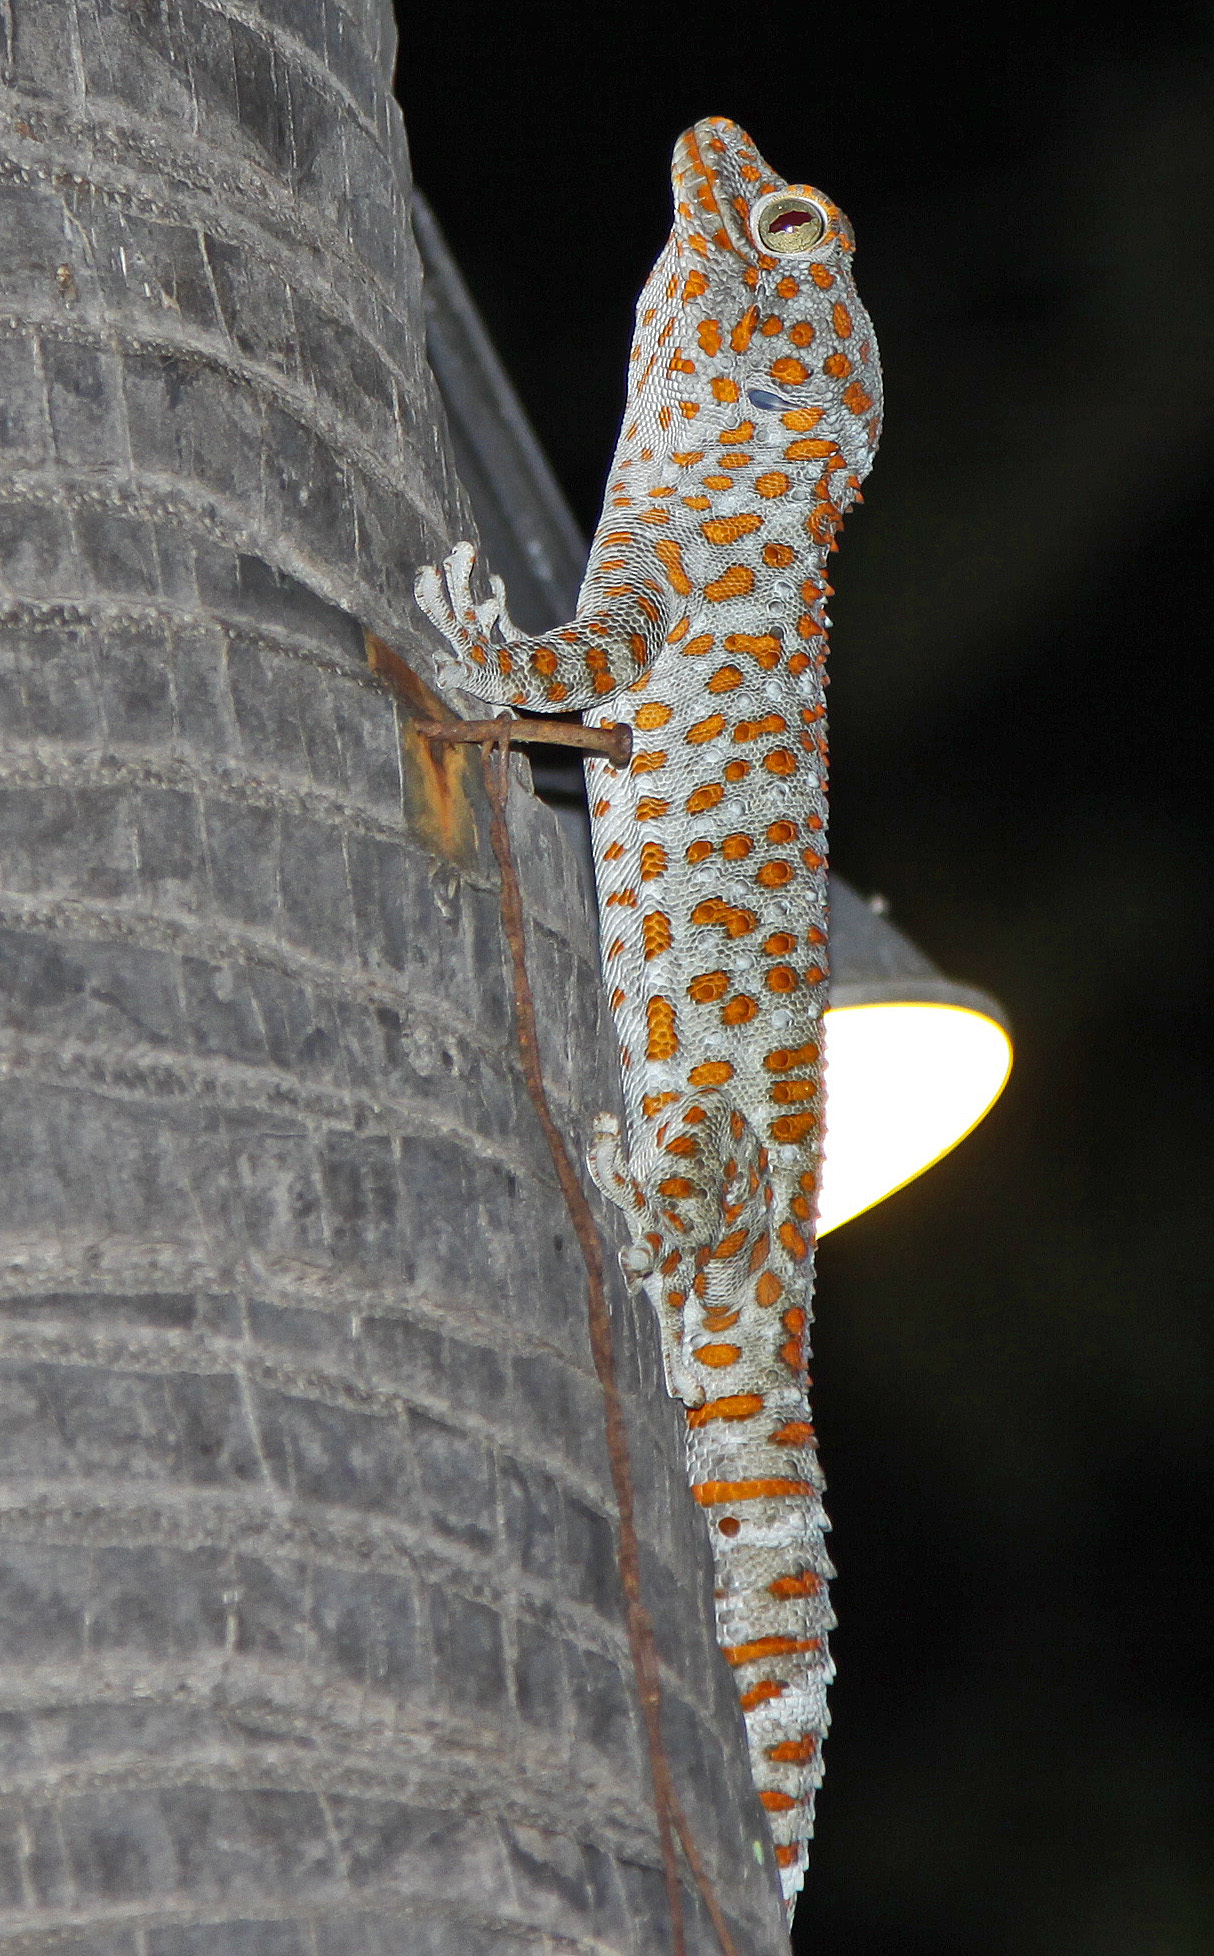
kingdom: Animalia
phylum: Chordata
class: Squamata
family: Gekkonidae
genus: Gekko
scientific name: Gekko gecko
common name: Tokay gecko
